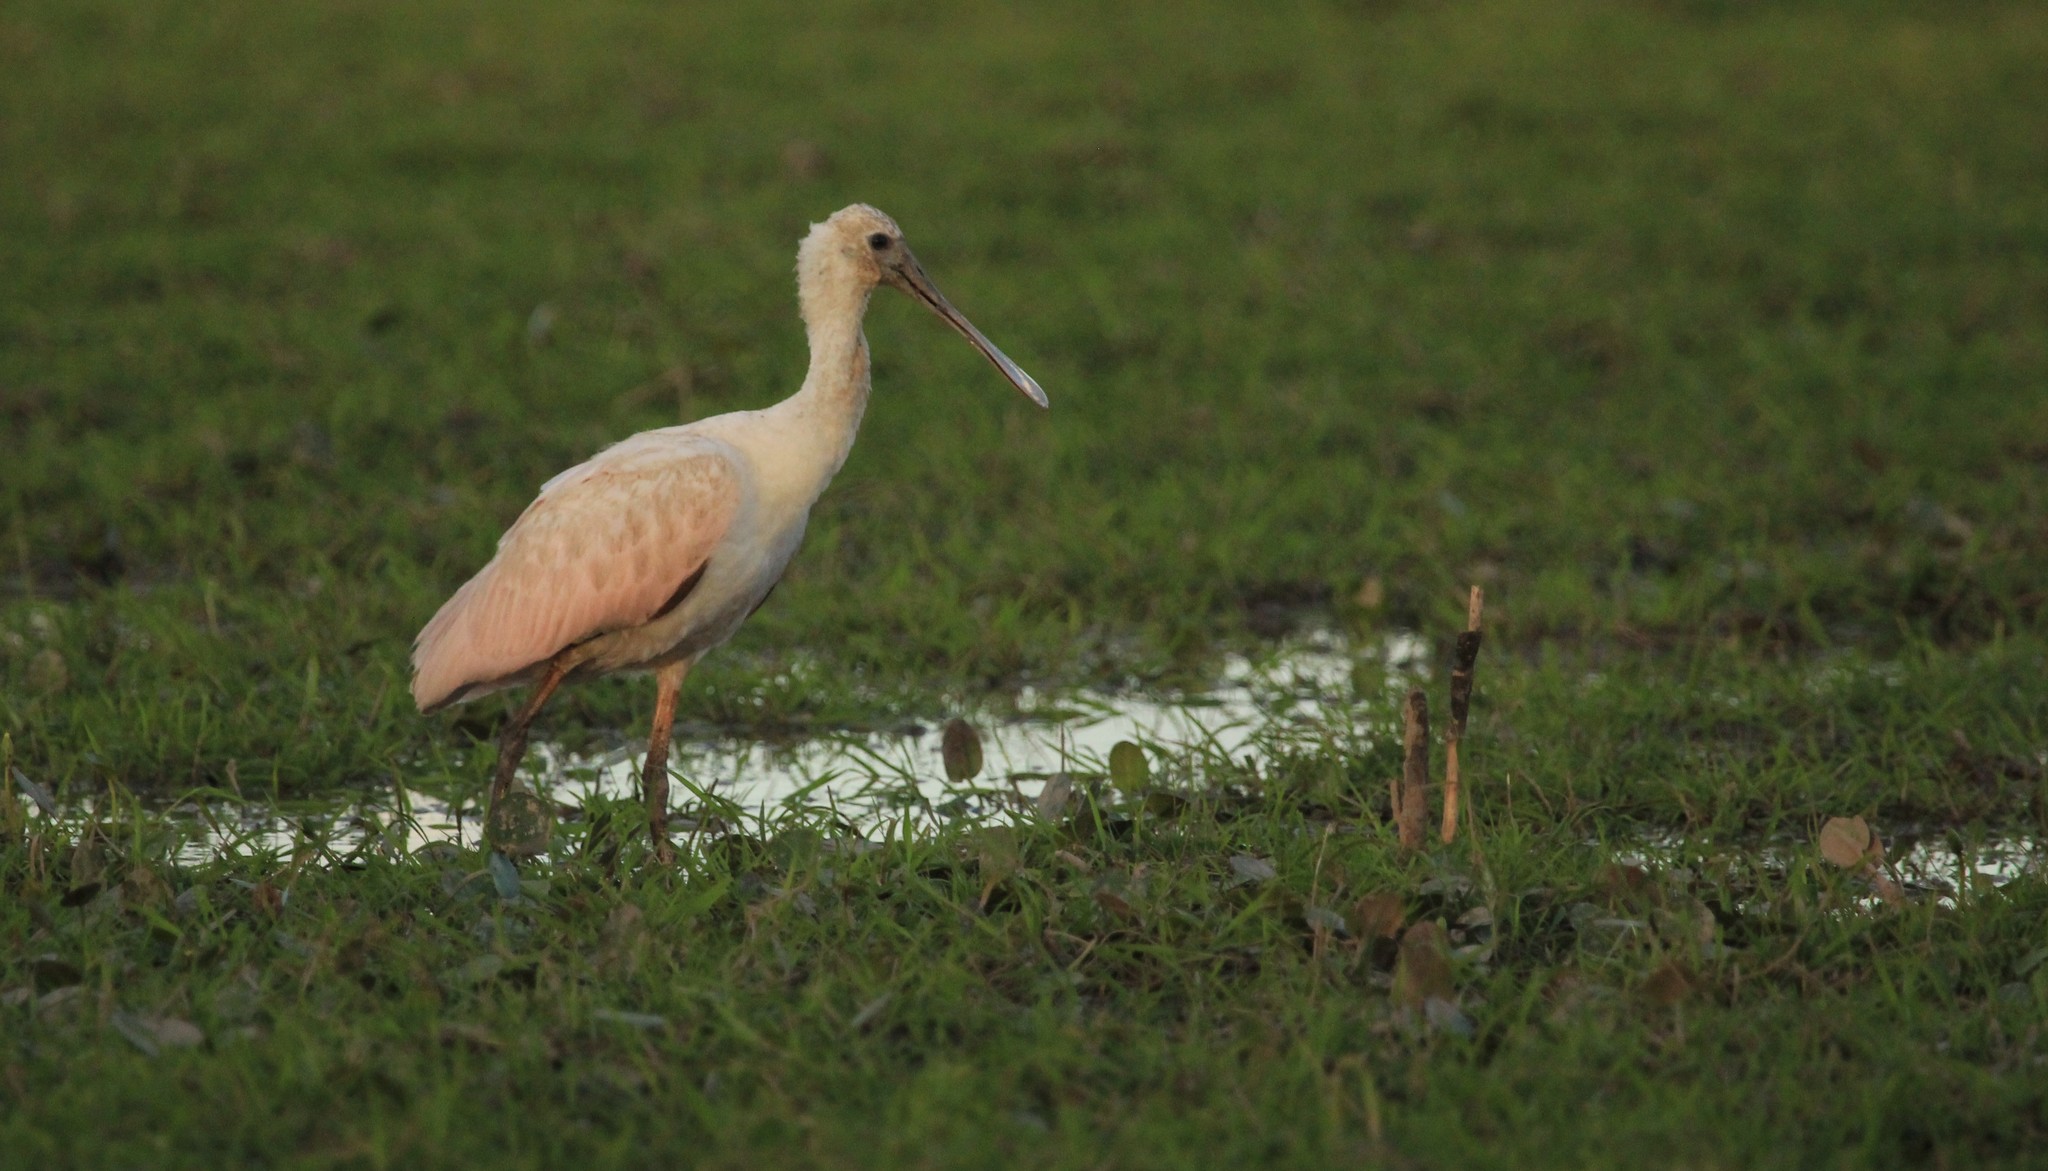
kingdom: Animalia
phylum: Chordata
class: Aves
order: Pelecaniformes
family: Threskiornithidae
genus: Platalea
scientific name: Platalea ajaja
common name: Roseate spoonbill
